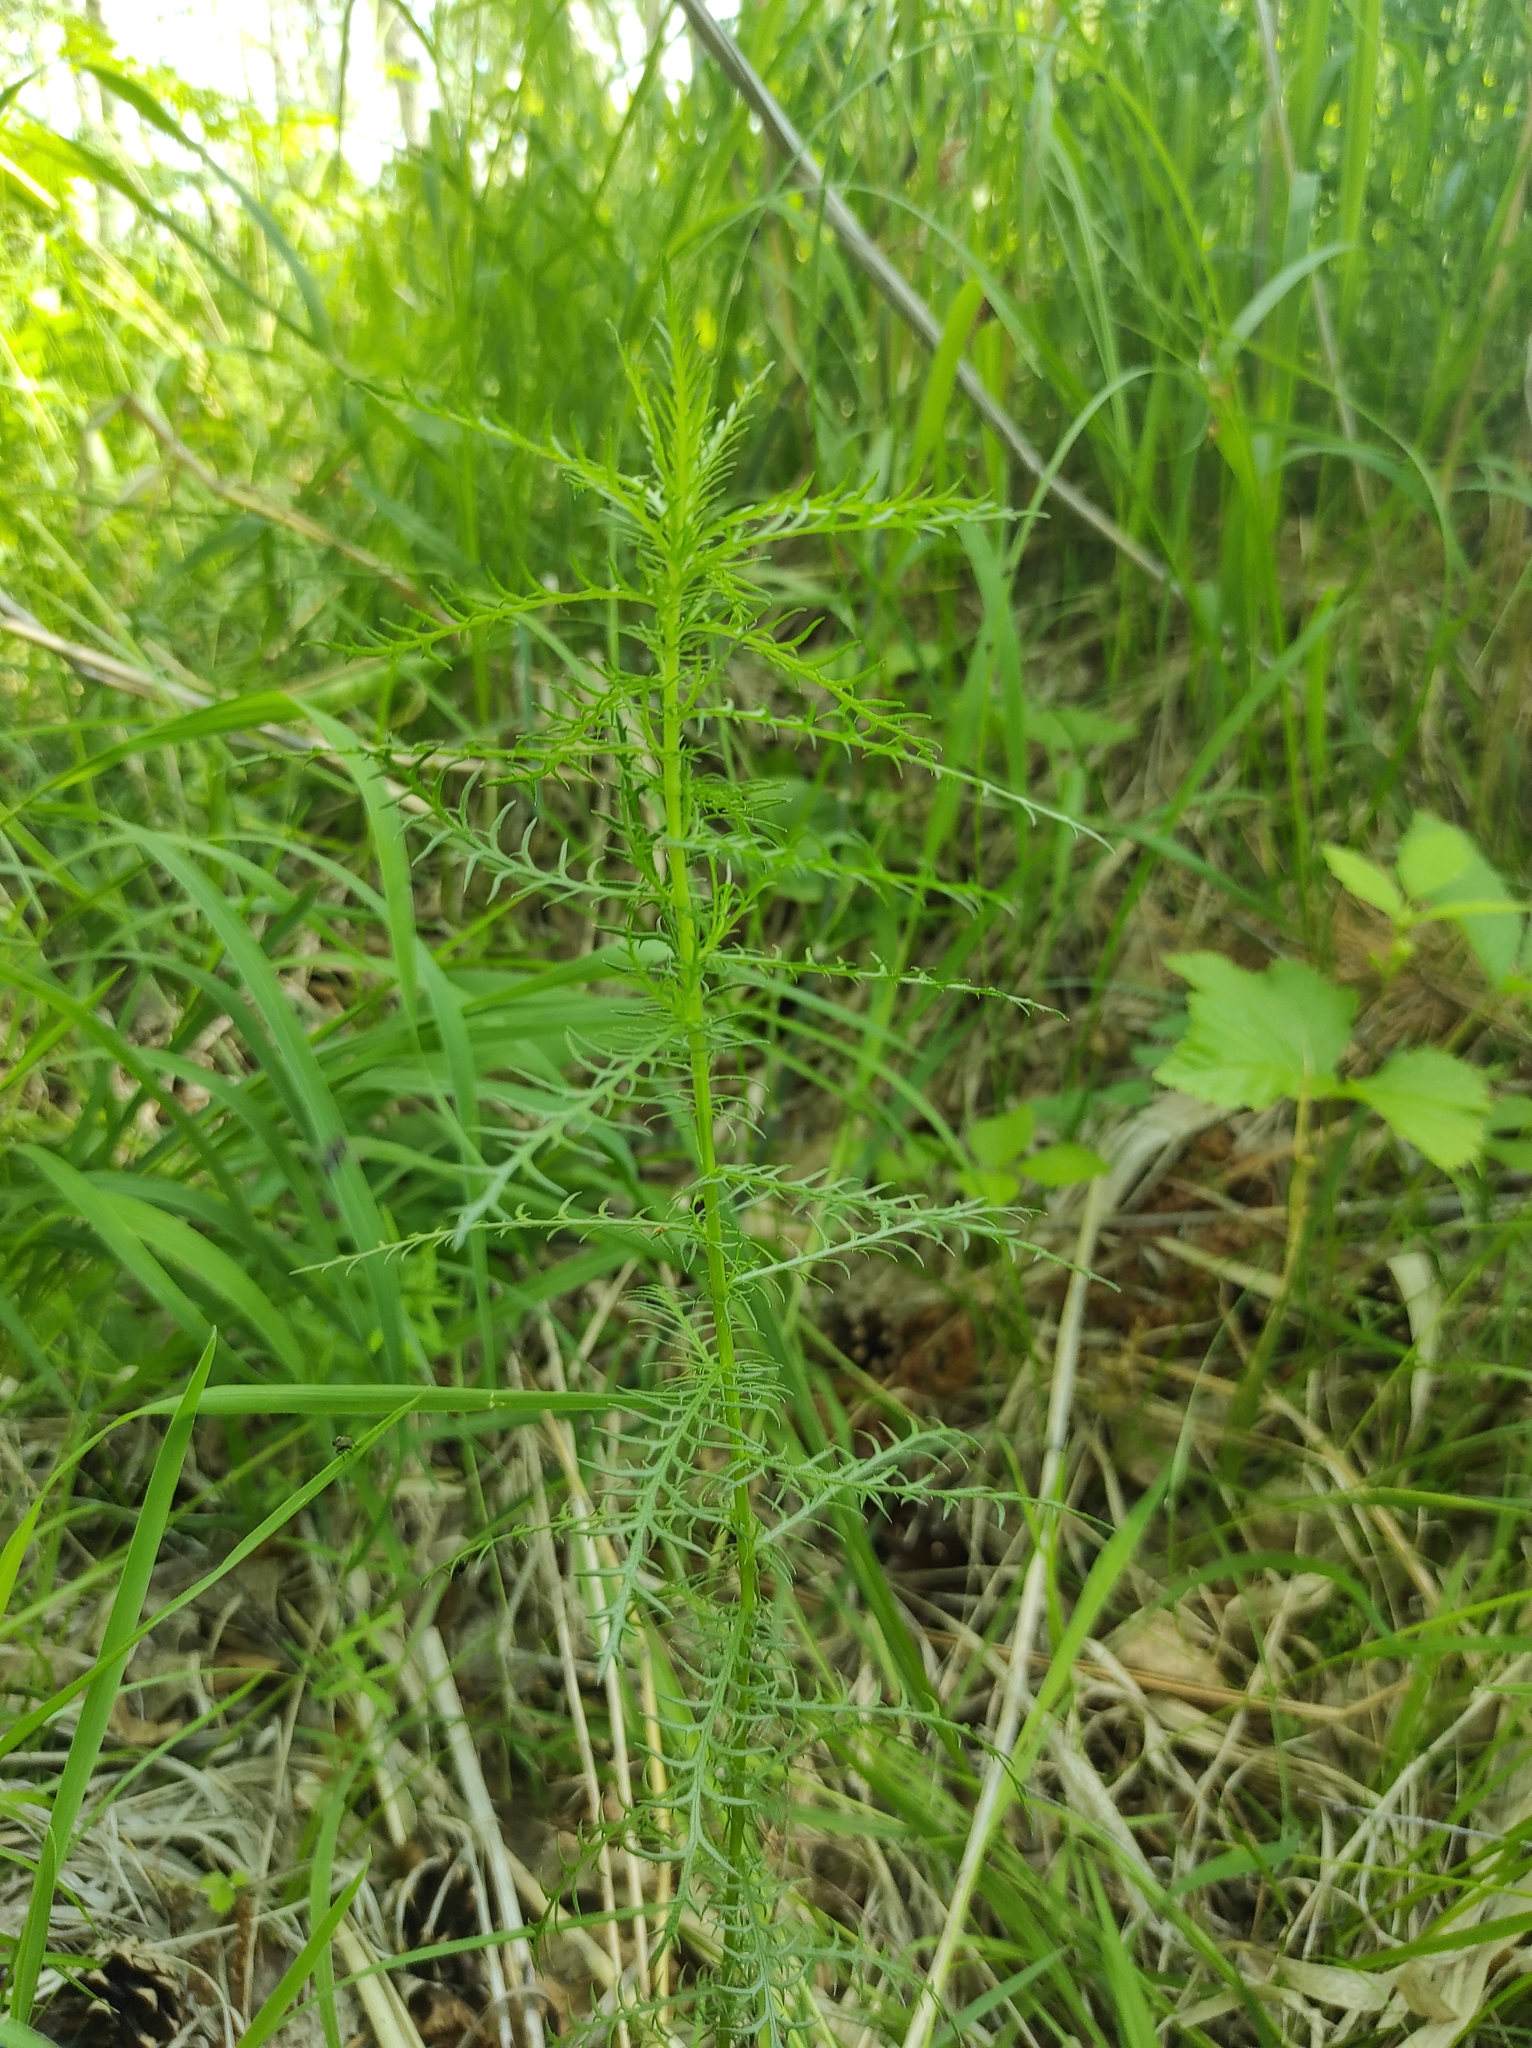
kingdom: Plantae
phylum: Tracheophyta
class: Magnoliopsida
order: Asterales
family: Asteraceae
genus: Achillea
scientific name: Achillea impatiens
